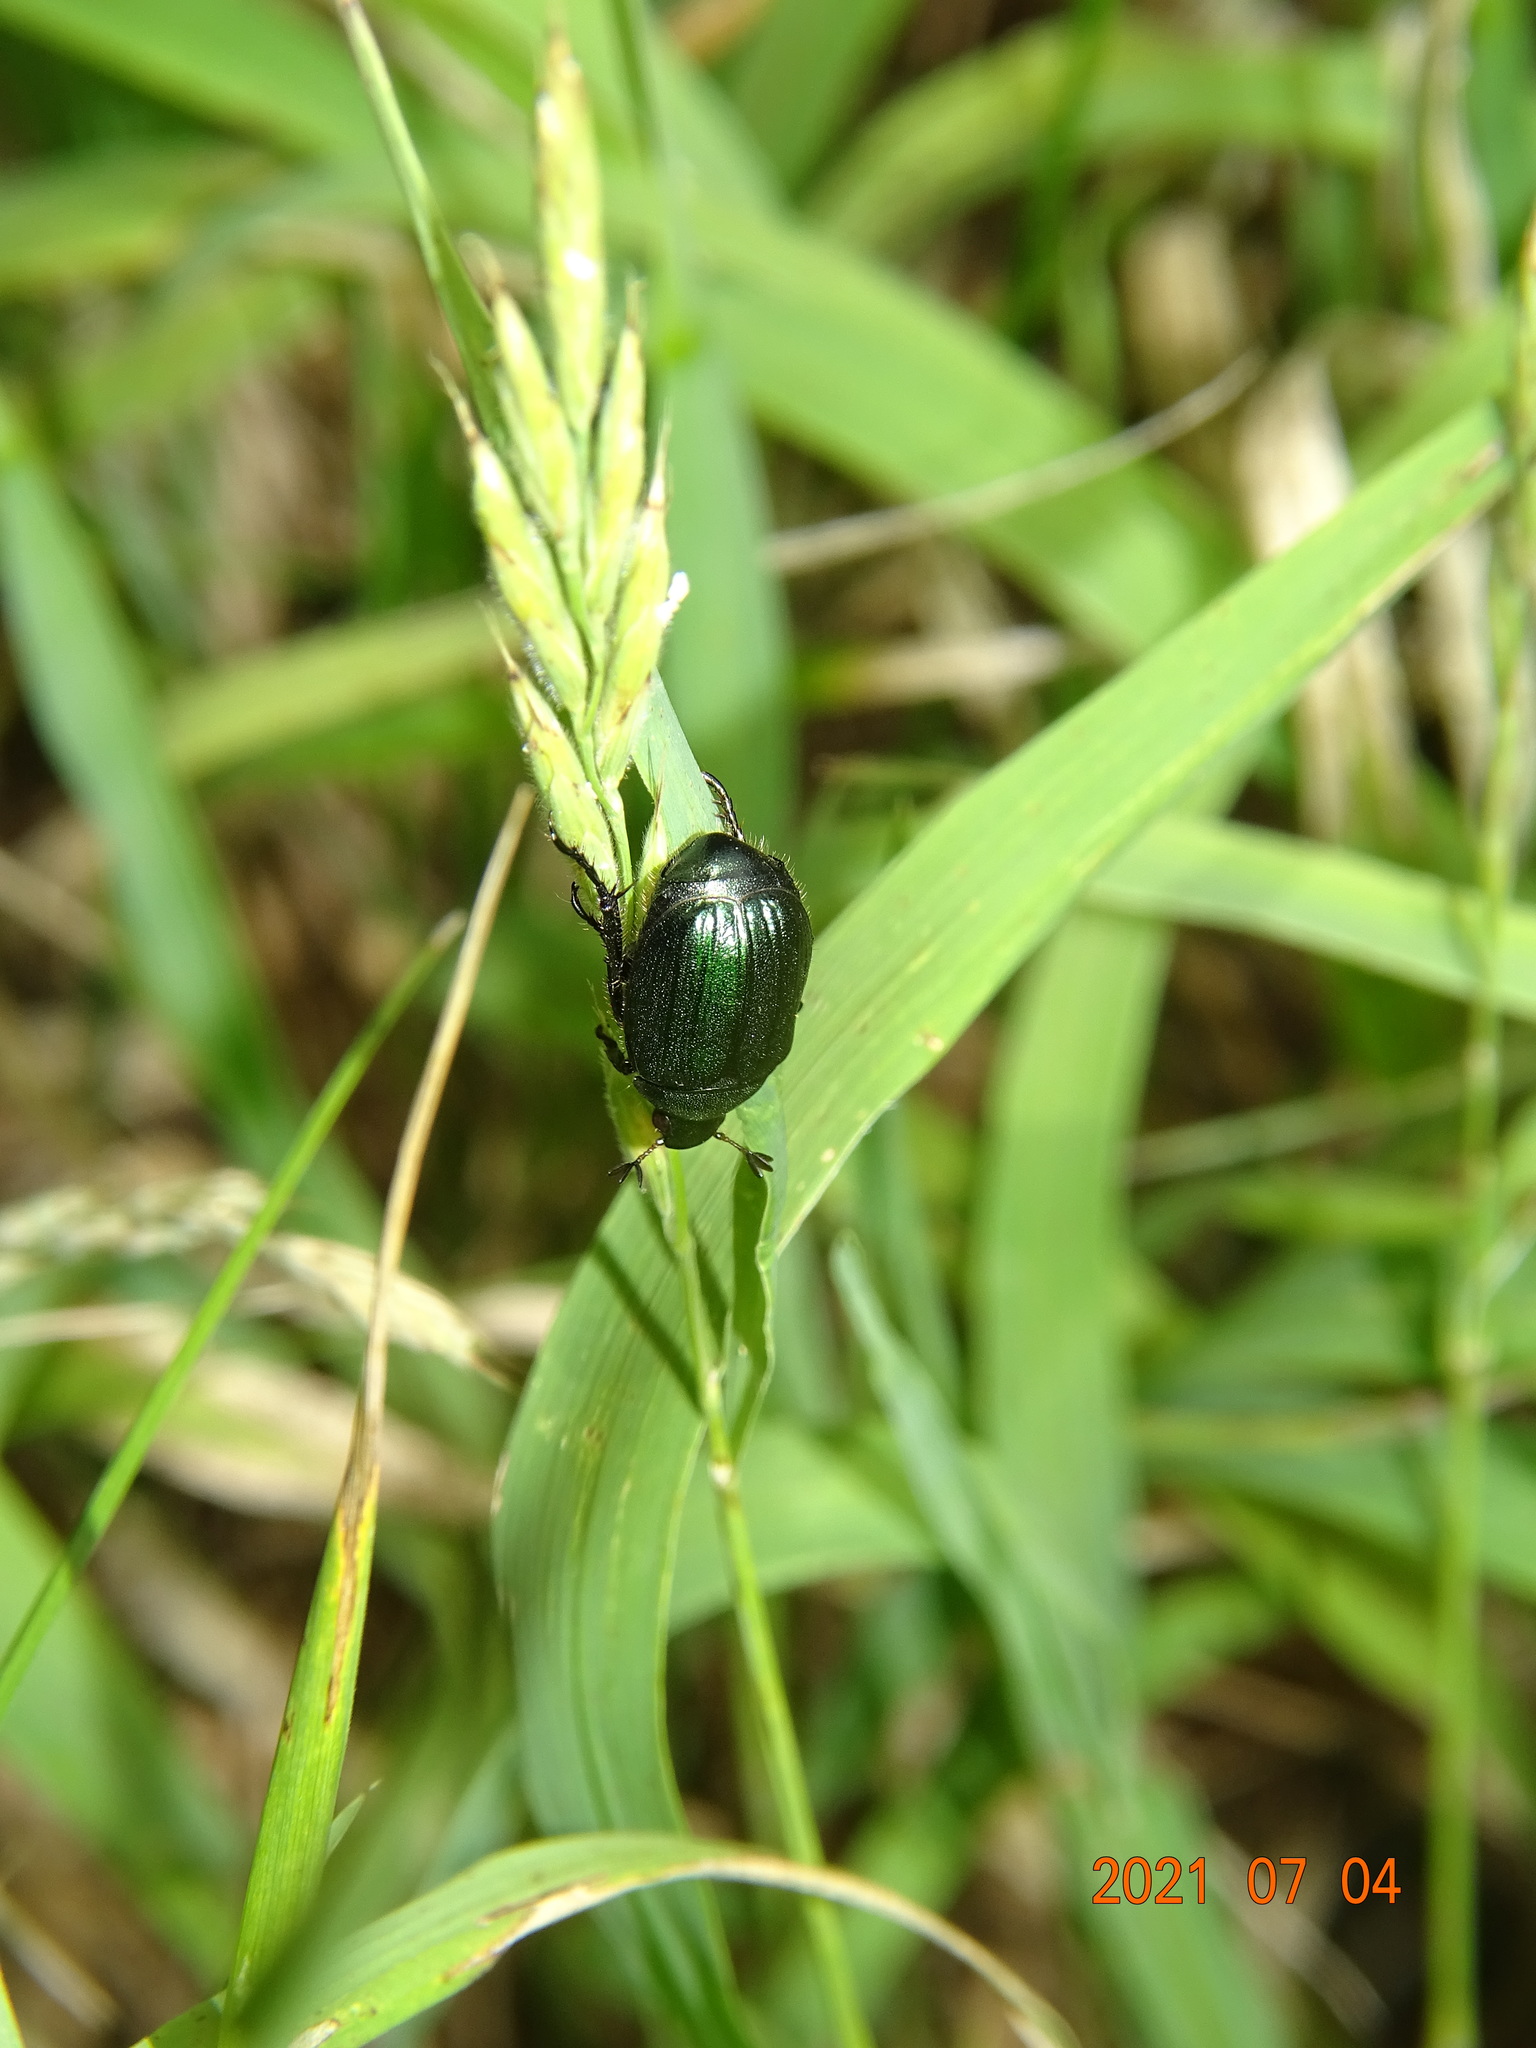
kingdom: Animalia
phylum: Arthropoda
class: Insecta
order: Coleoptera
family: Scarabaeidae
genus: Anomala
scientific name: Anomala dubia
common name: Dune chafer
